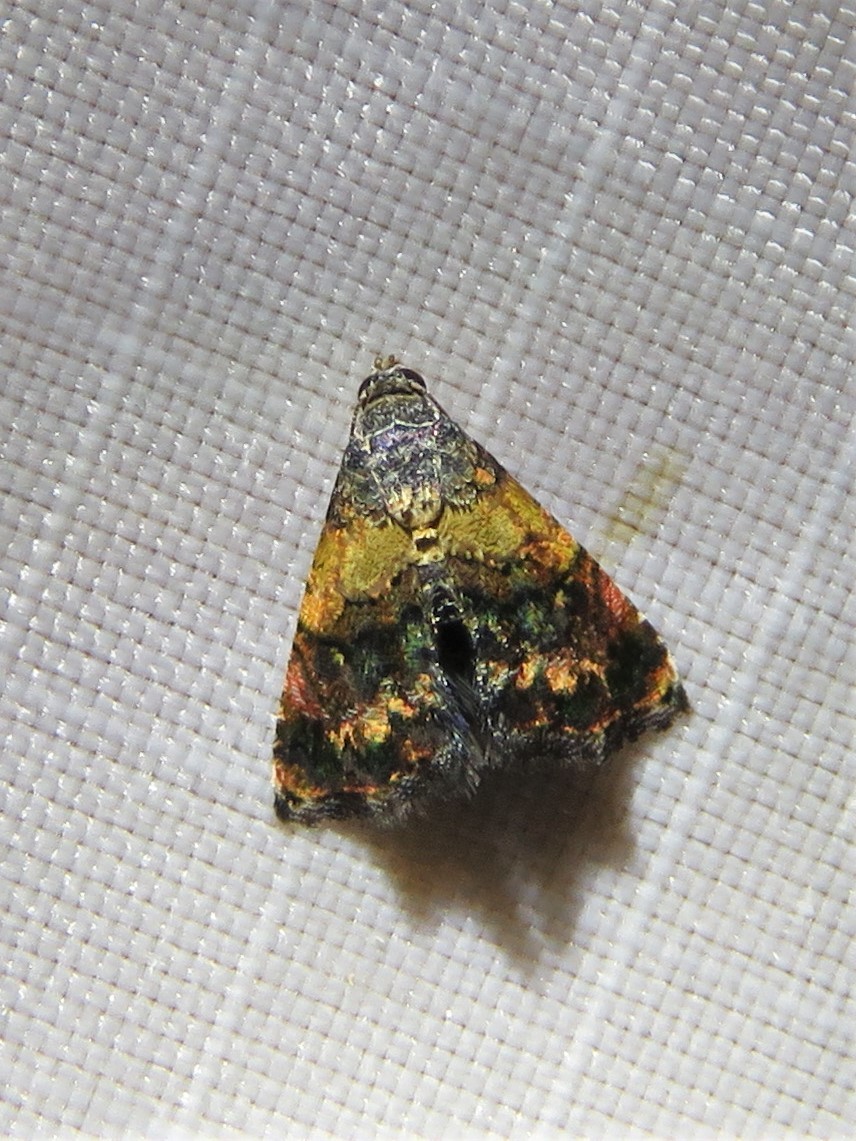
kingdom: Animalia
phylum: Arthropoda
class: Insecta
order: Lepidoptera
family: Noctuidae
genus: Tripudia
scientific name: Tripudia flavofasciata
